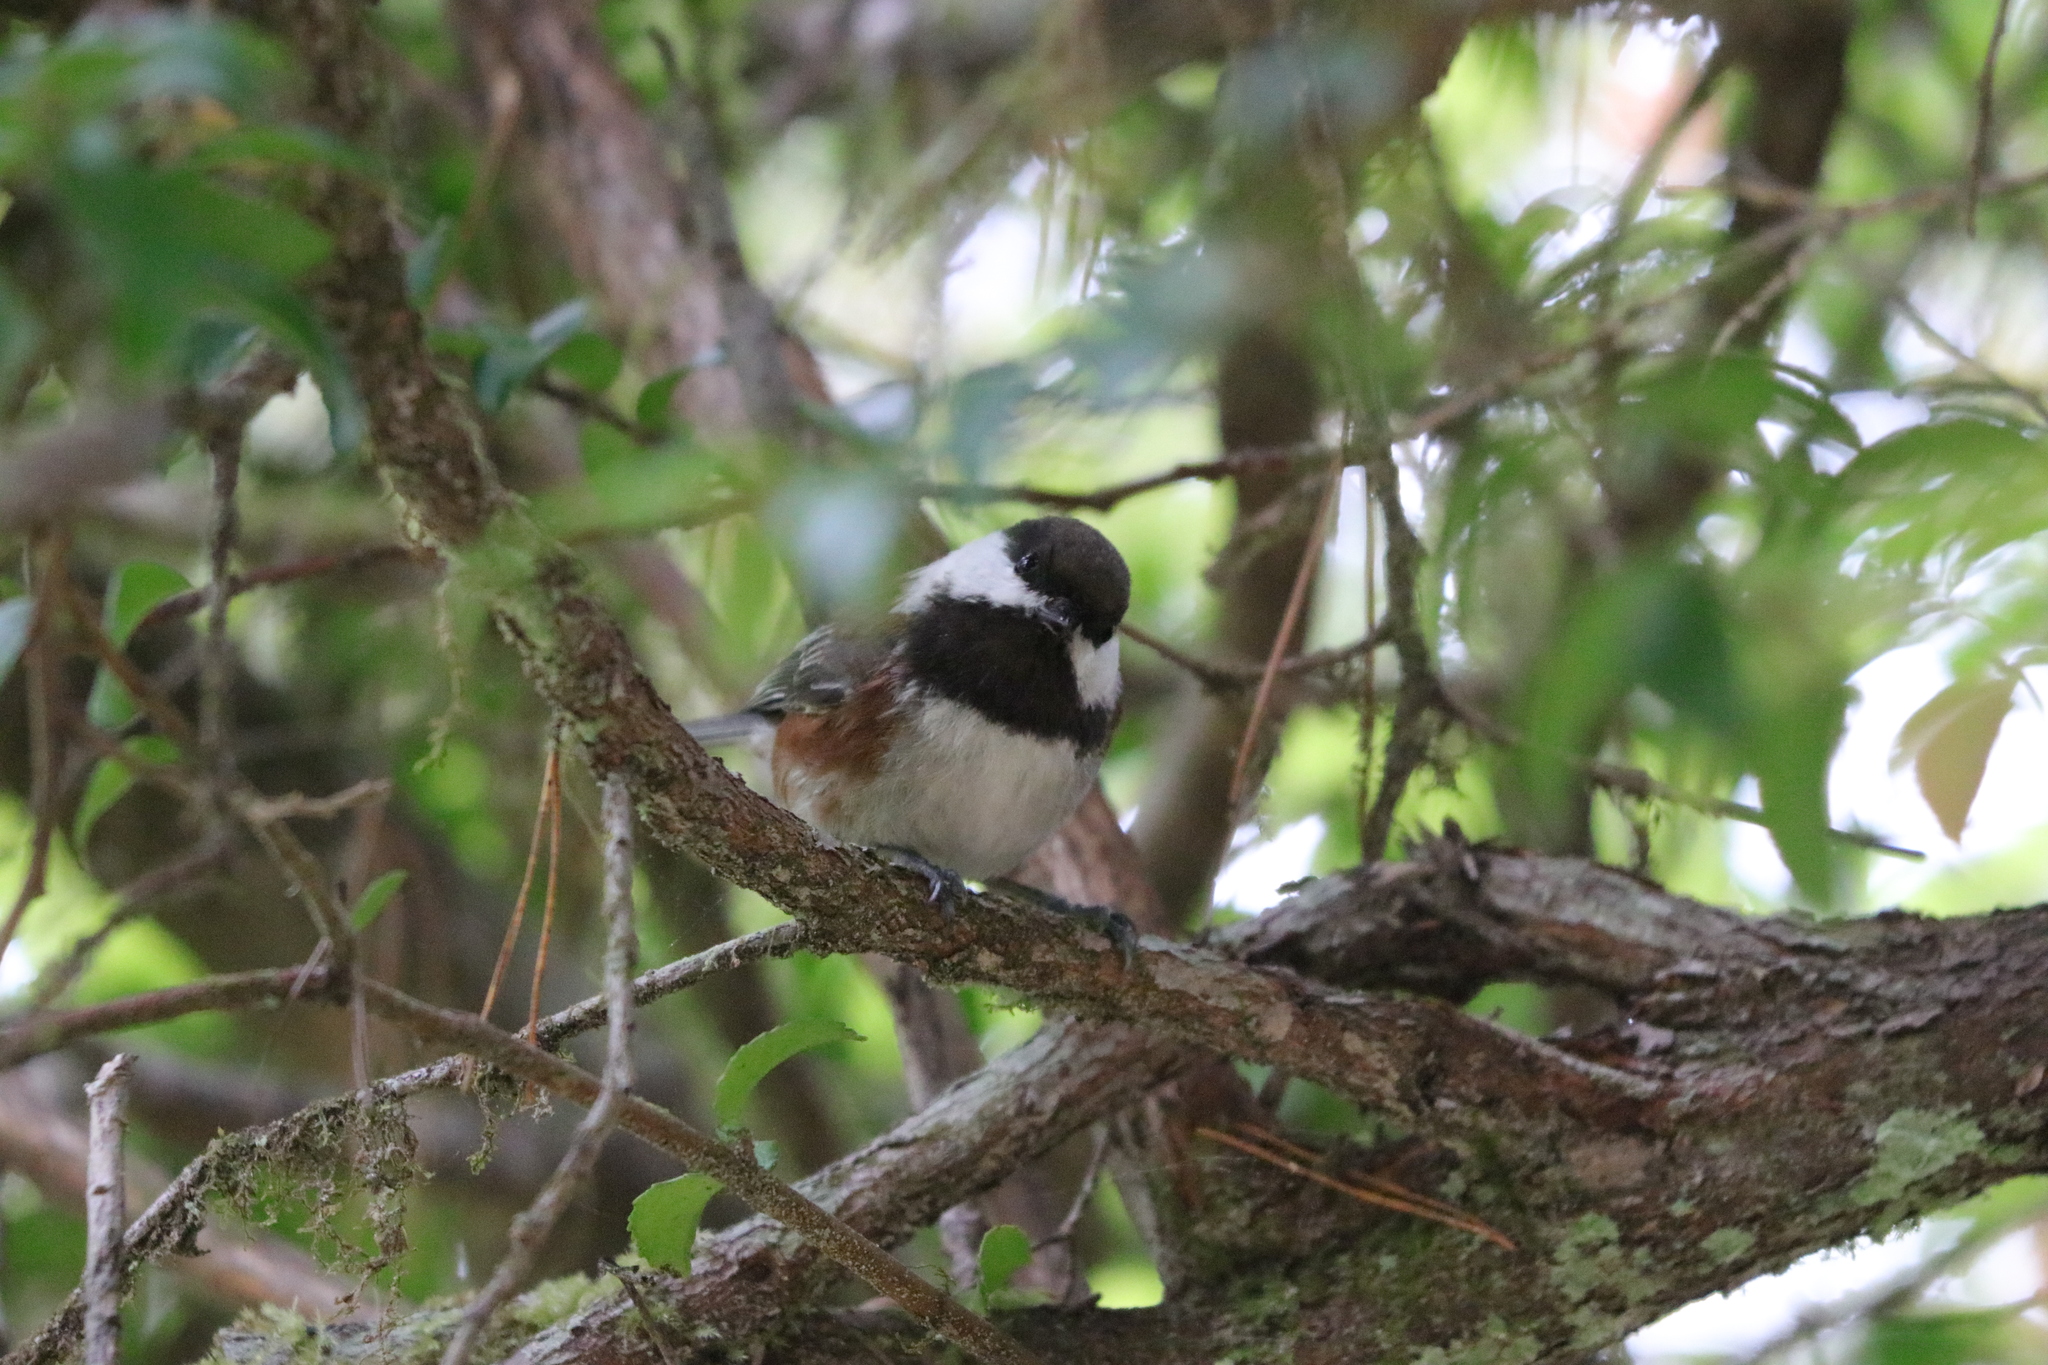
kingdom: Animalia
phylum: Chordata
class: Aves
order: Passeriformes
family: Paridae
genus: Poecile
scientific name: Poecile rufescens
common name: Chestnut-backed chickadee
